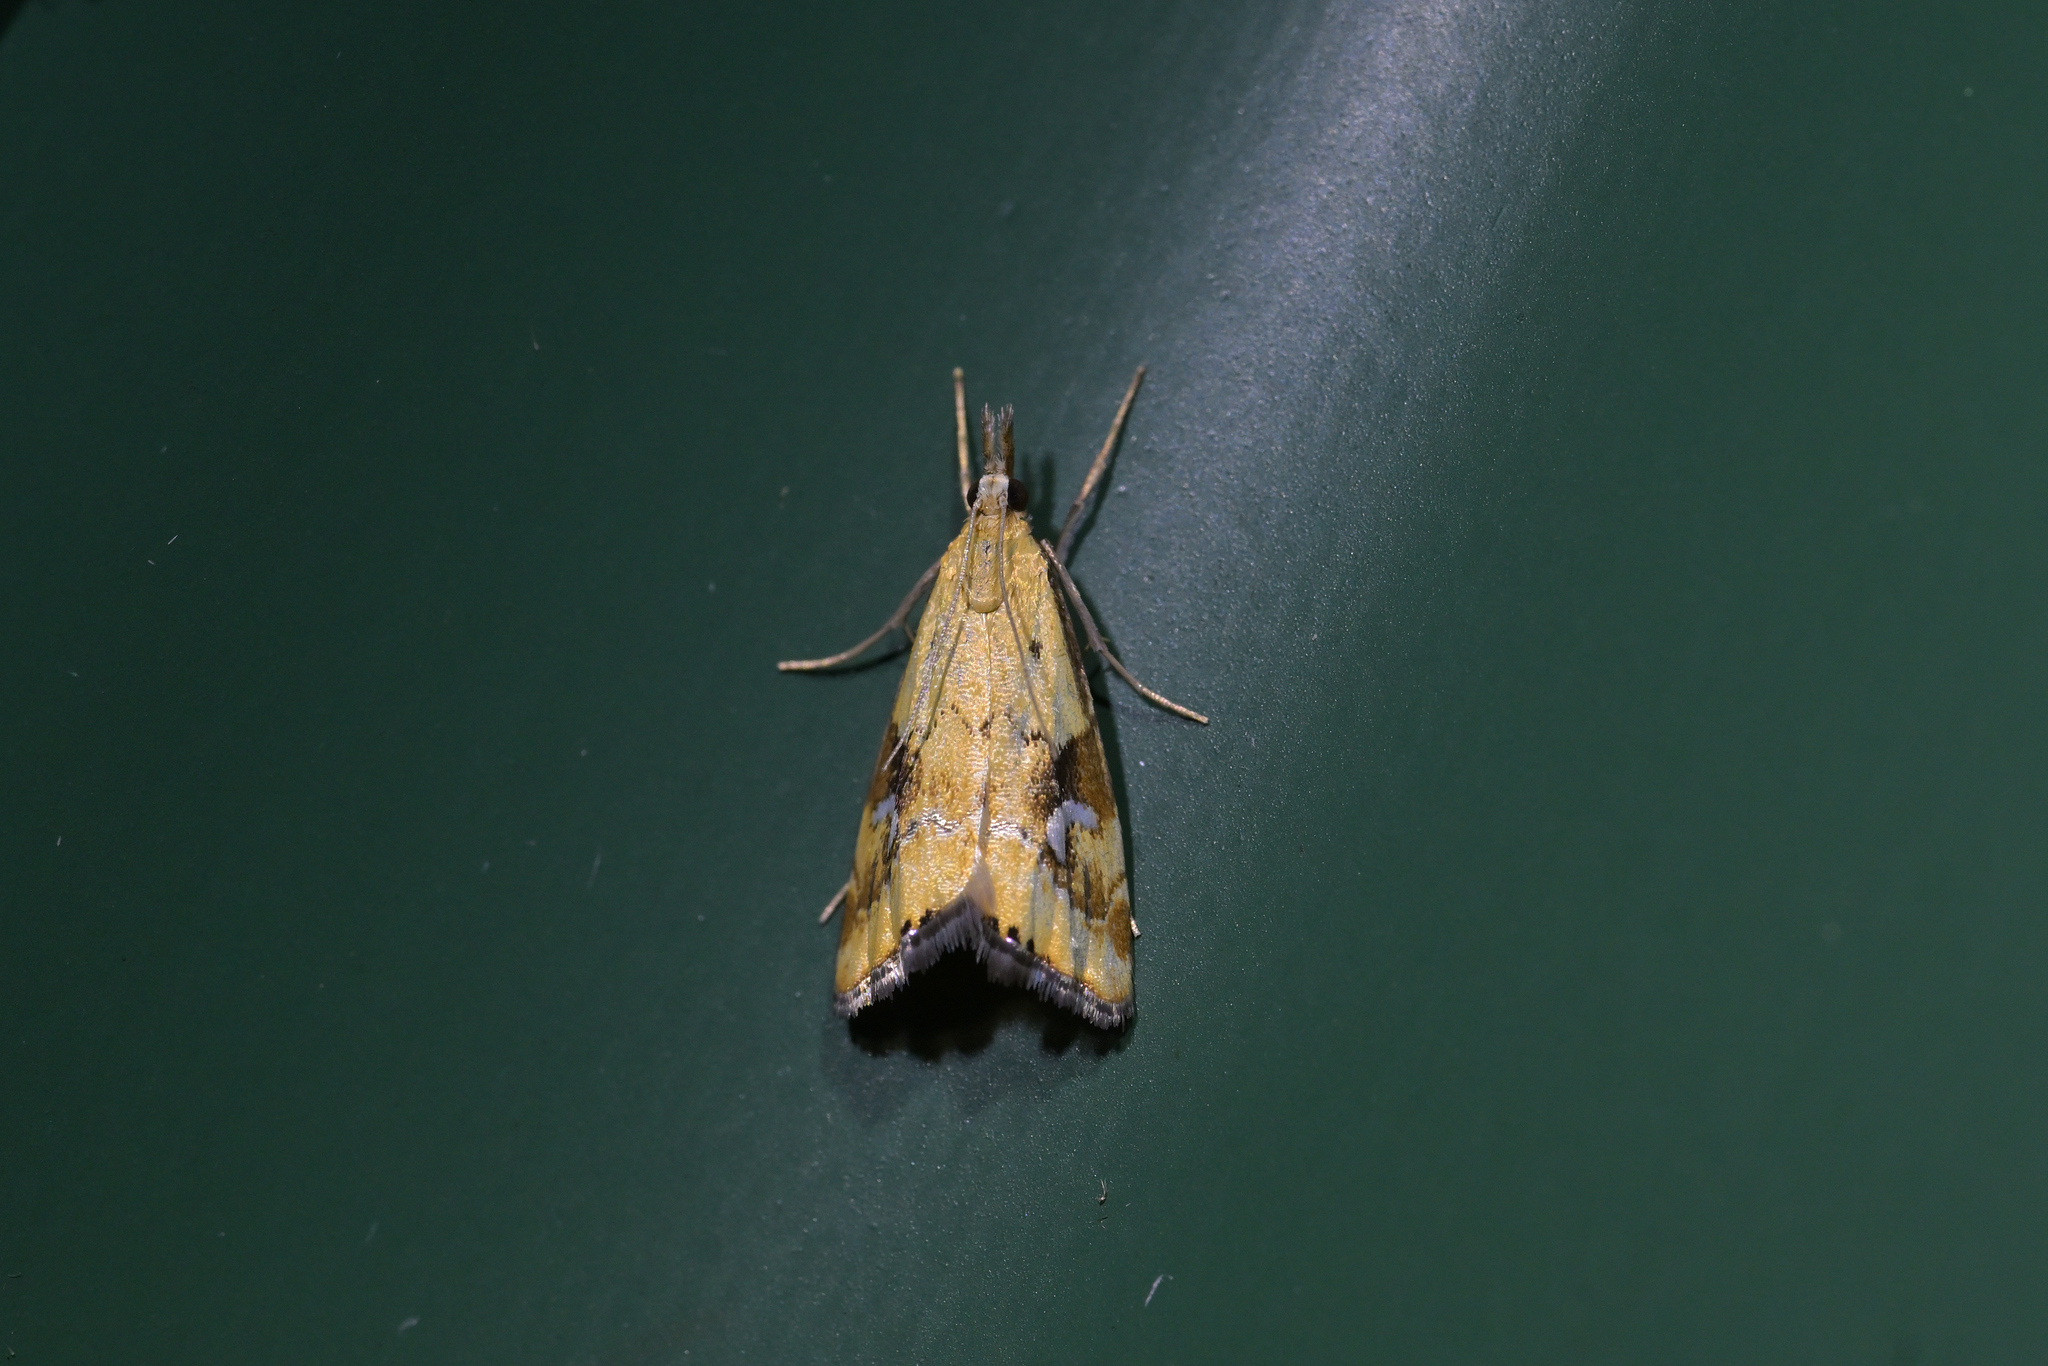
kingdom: Animalia
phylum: Arthropoda
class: Insecta
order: Lepidoptera
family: Crambidae
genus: Glaucocharis
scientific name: Glaucocharis lepidella
